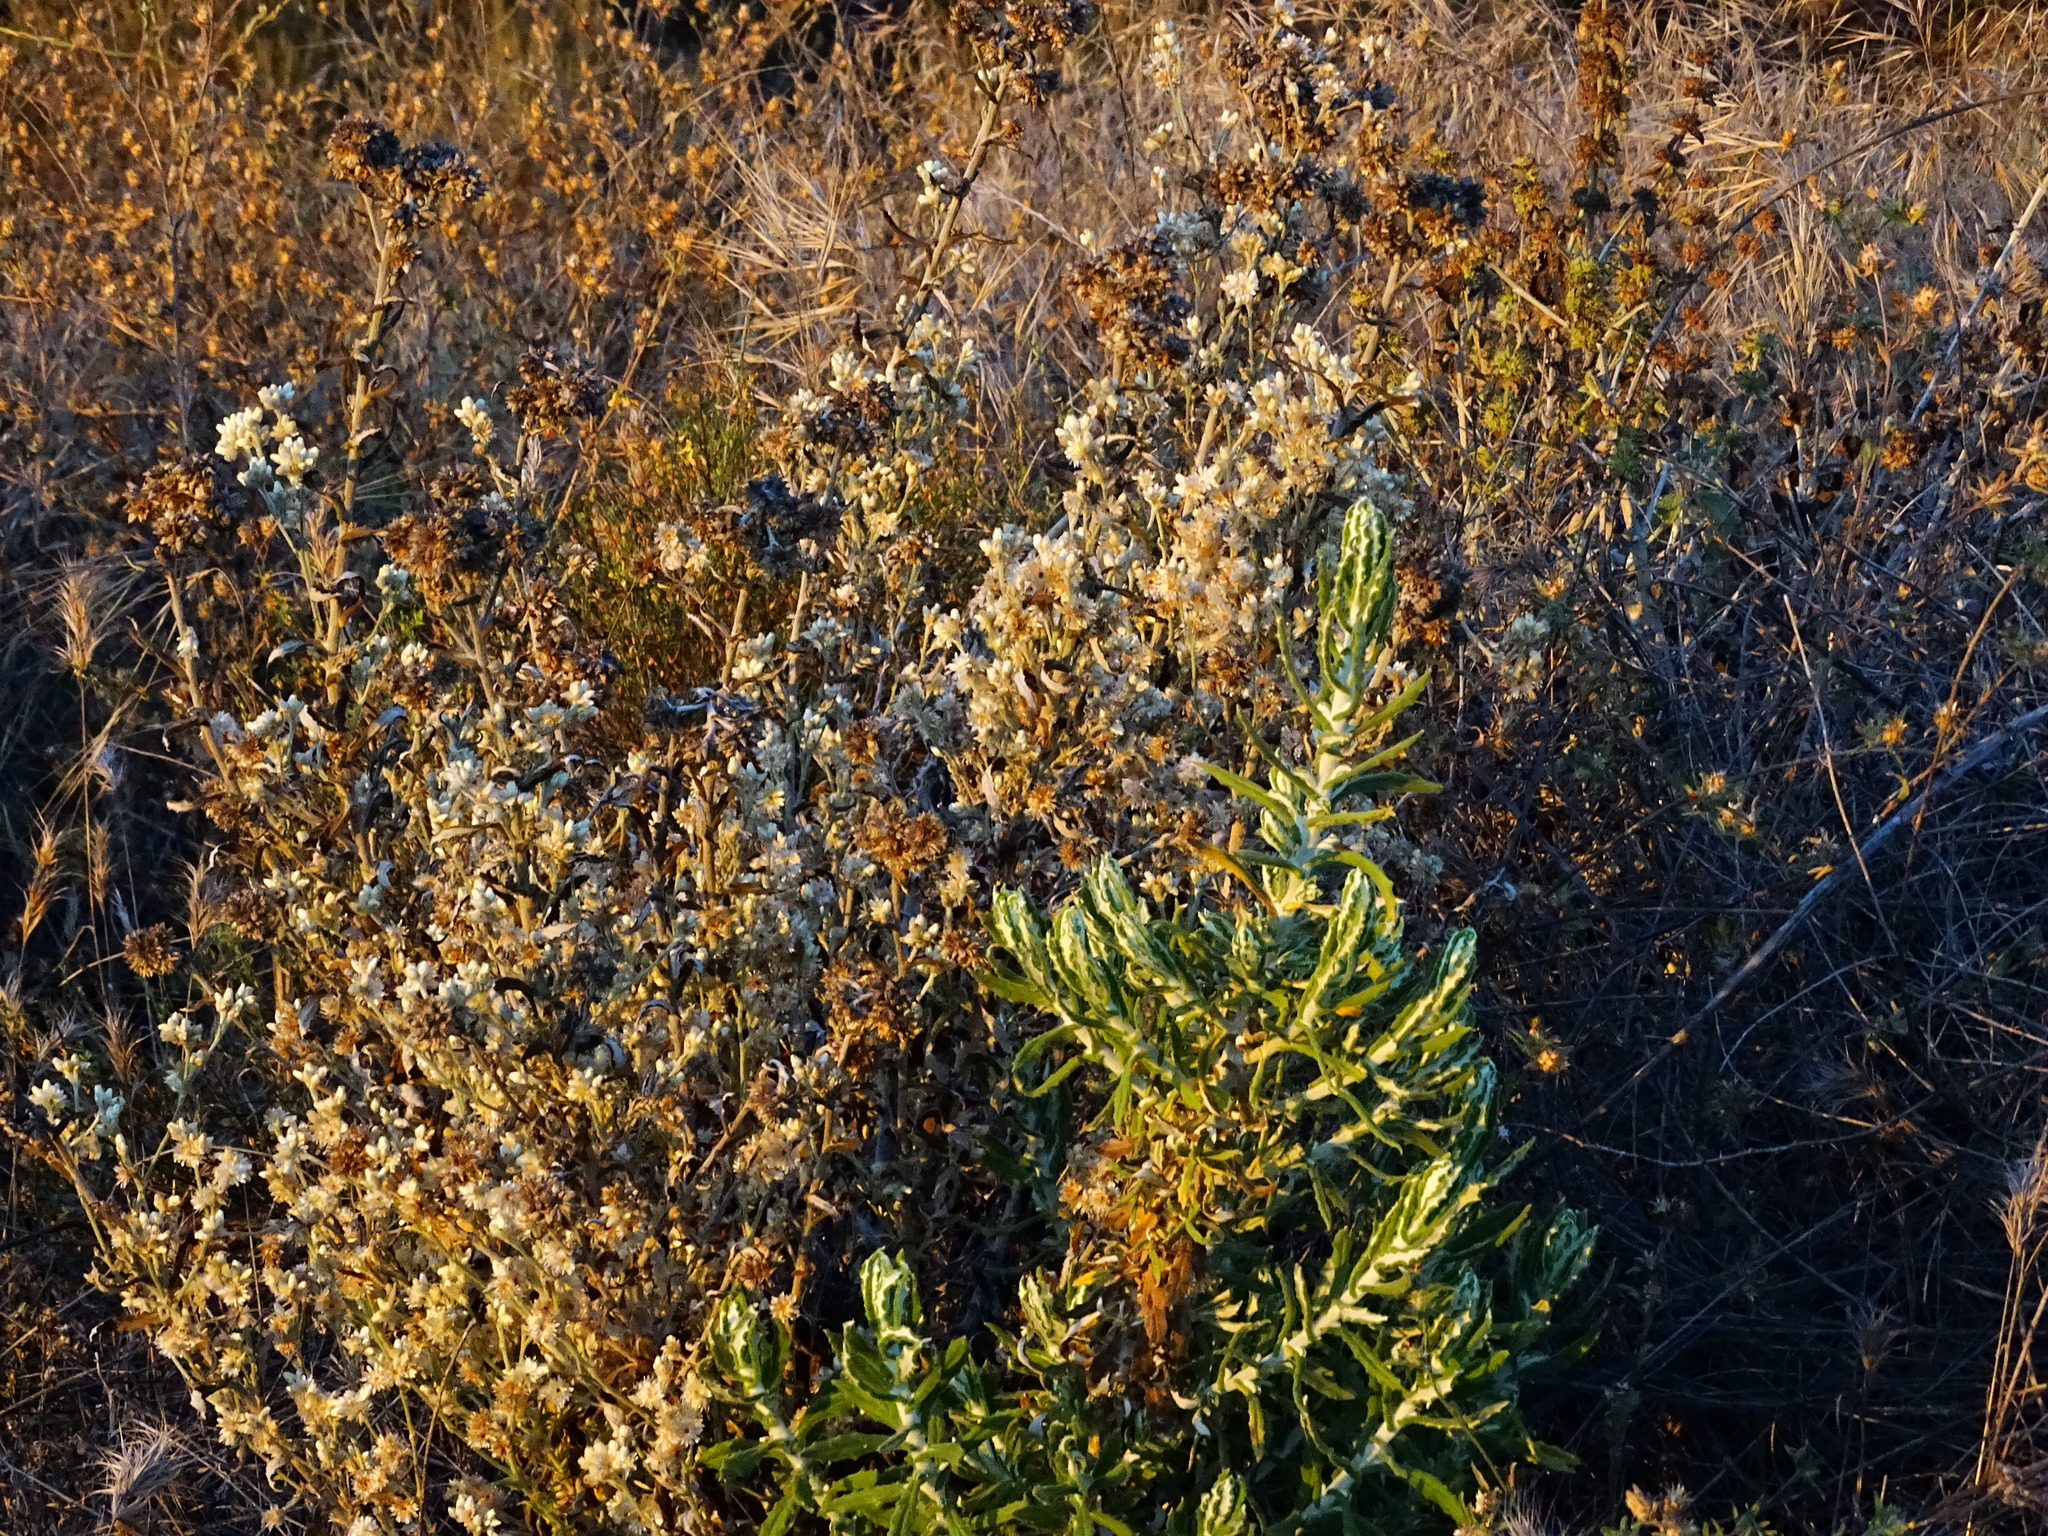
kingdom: Plantae
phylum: Tracheophyta
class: Magnoliopsida
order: Asterales
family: Asteraceae
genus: Pseudognaphalium
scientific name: Pseudognaphalium biolettii
